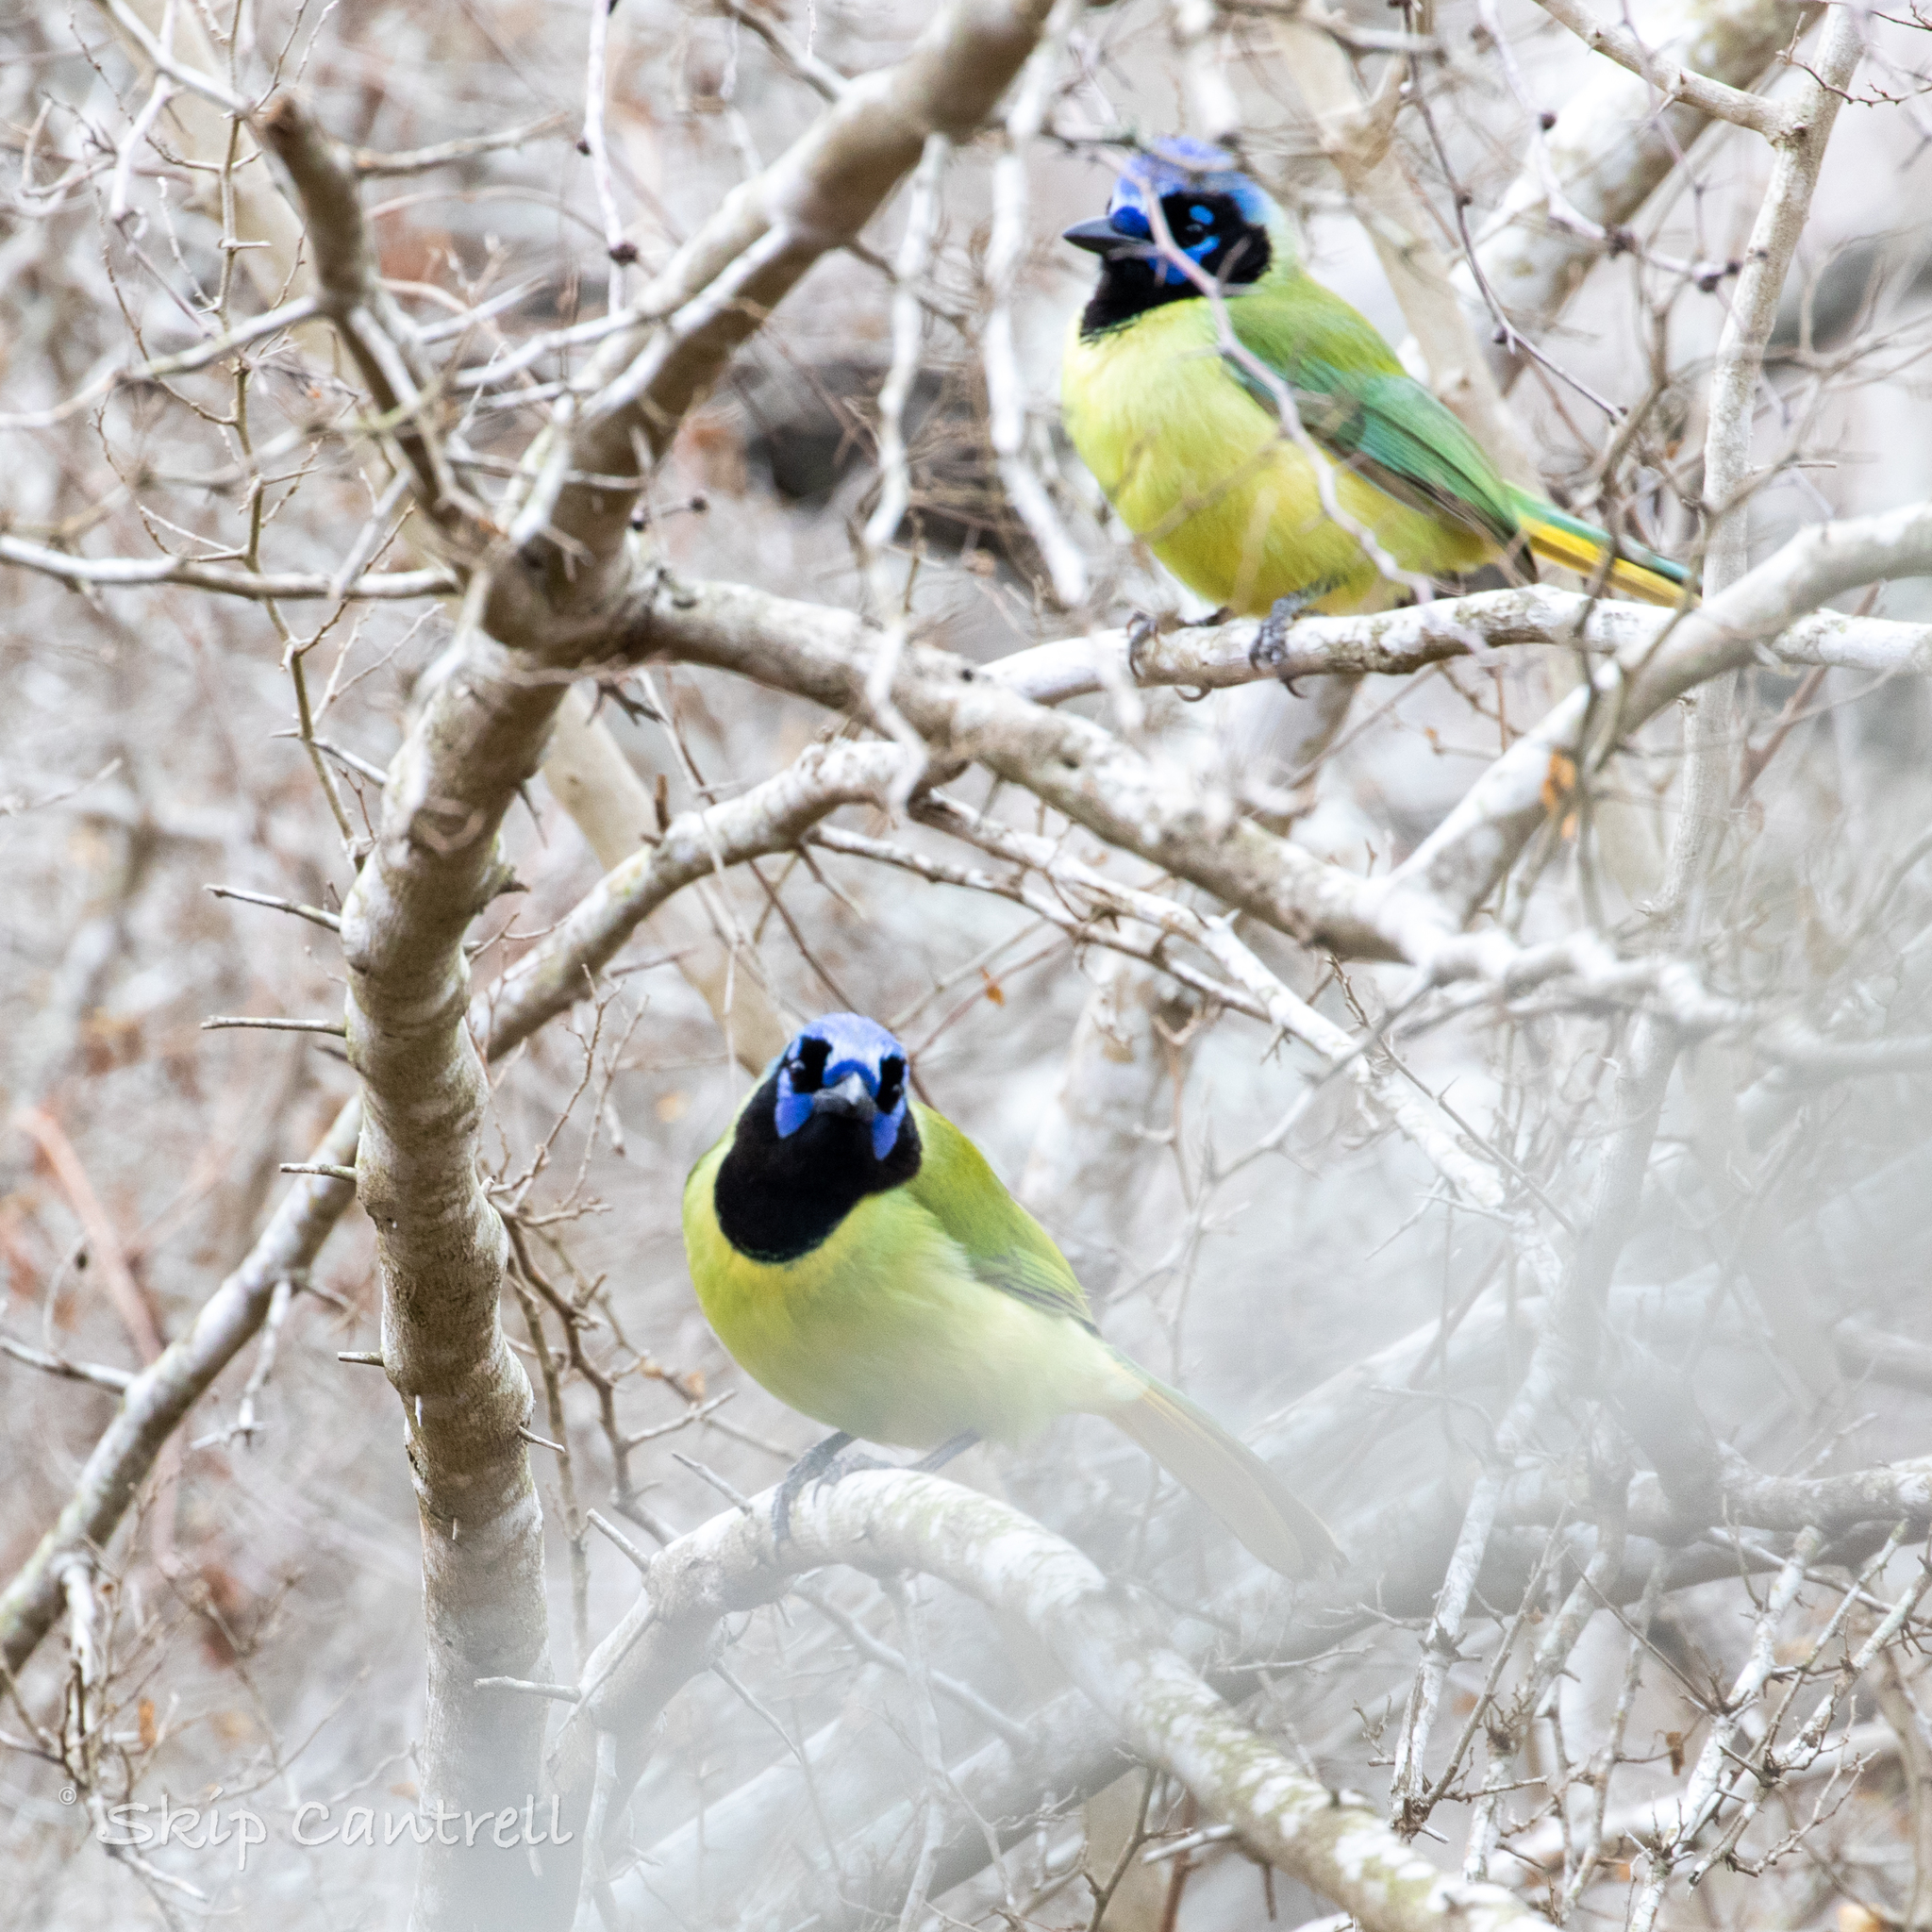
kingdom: Animalia
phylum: Chordata
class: Aves
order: Passeriformes
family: Corvidae
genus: Cyanocorax
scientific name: Cyanocorax yncas
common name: Green jay
